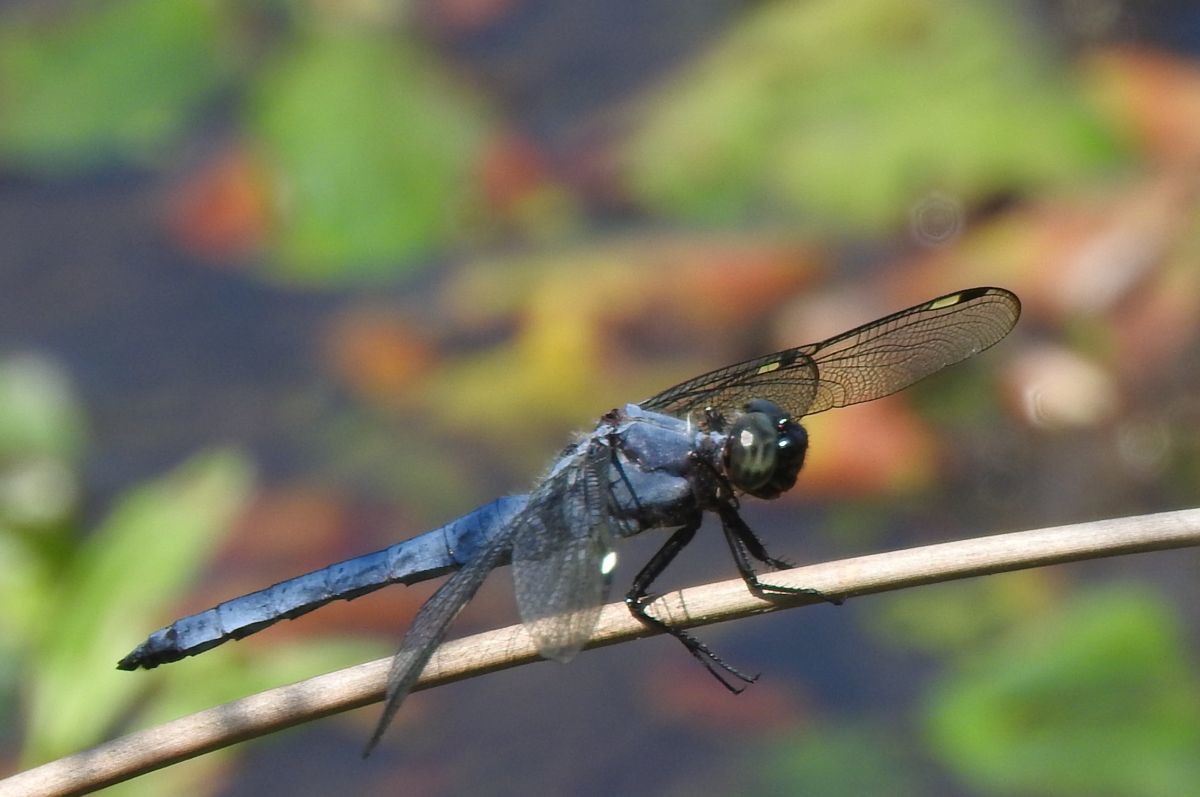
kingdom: Animalia
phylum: Arthropoda
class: Insecta
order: Odonata
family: Libellulidae
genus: Libellula
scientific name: Libellula cyanea
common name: Spangled skimmer
